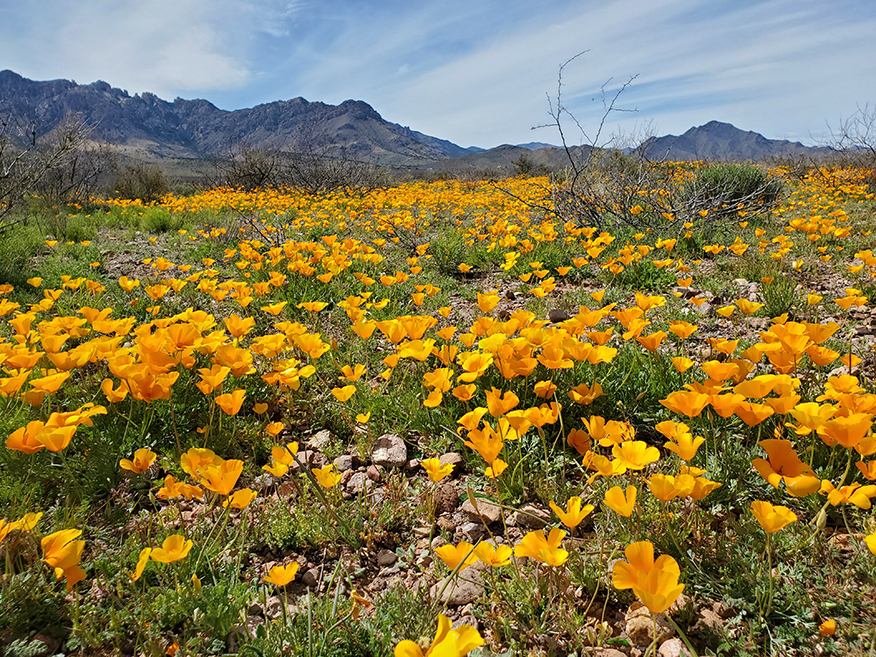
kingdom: Plantae
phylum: Tracheophyta
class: Magnoliopsida
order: Ranunculales
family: Papaveraceae
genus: Eschscholzia
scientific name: Eschscholzia californica
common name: California poppy
